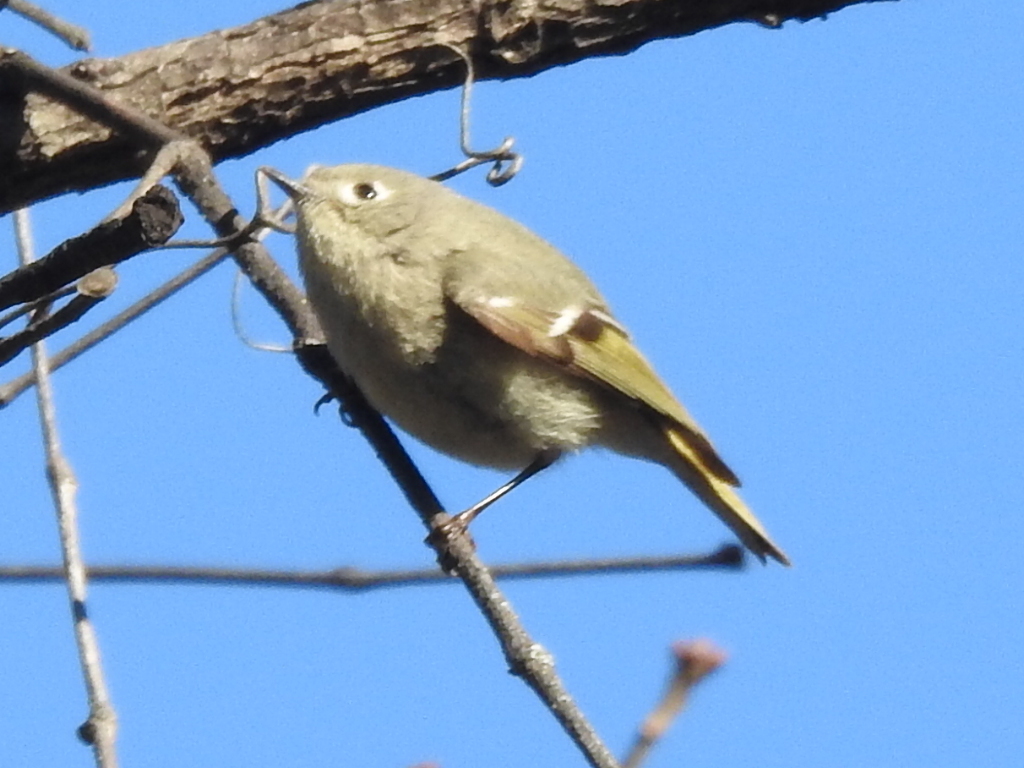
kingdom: Animalia
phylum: Chordata
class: Aves
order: Passeriformes
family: Regulidae
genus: Regulus
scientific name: Regulus calendula
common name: Ruby-crowned kinglet
